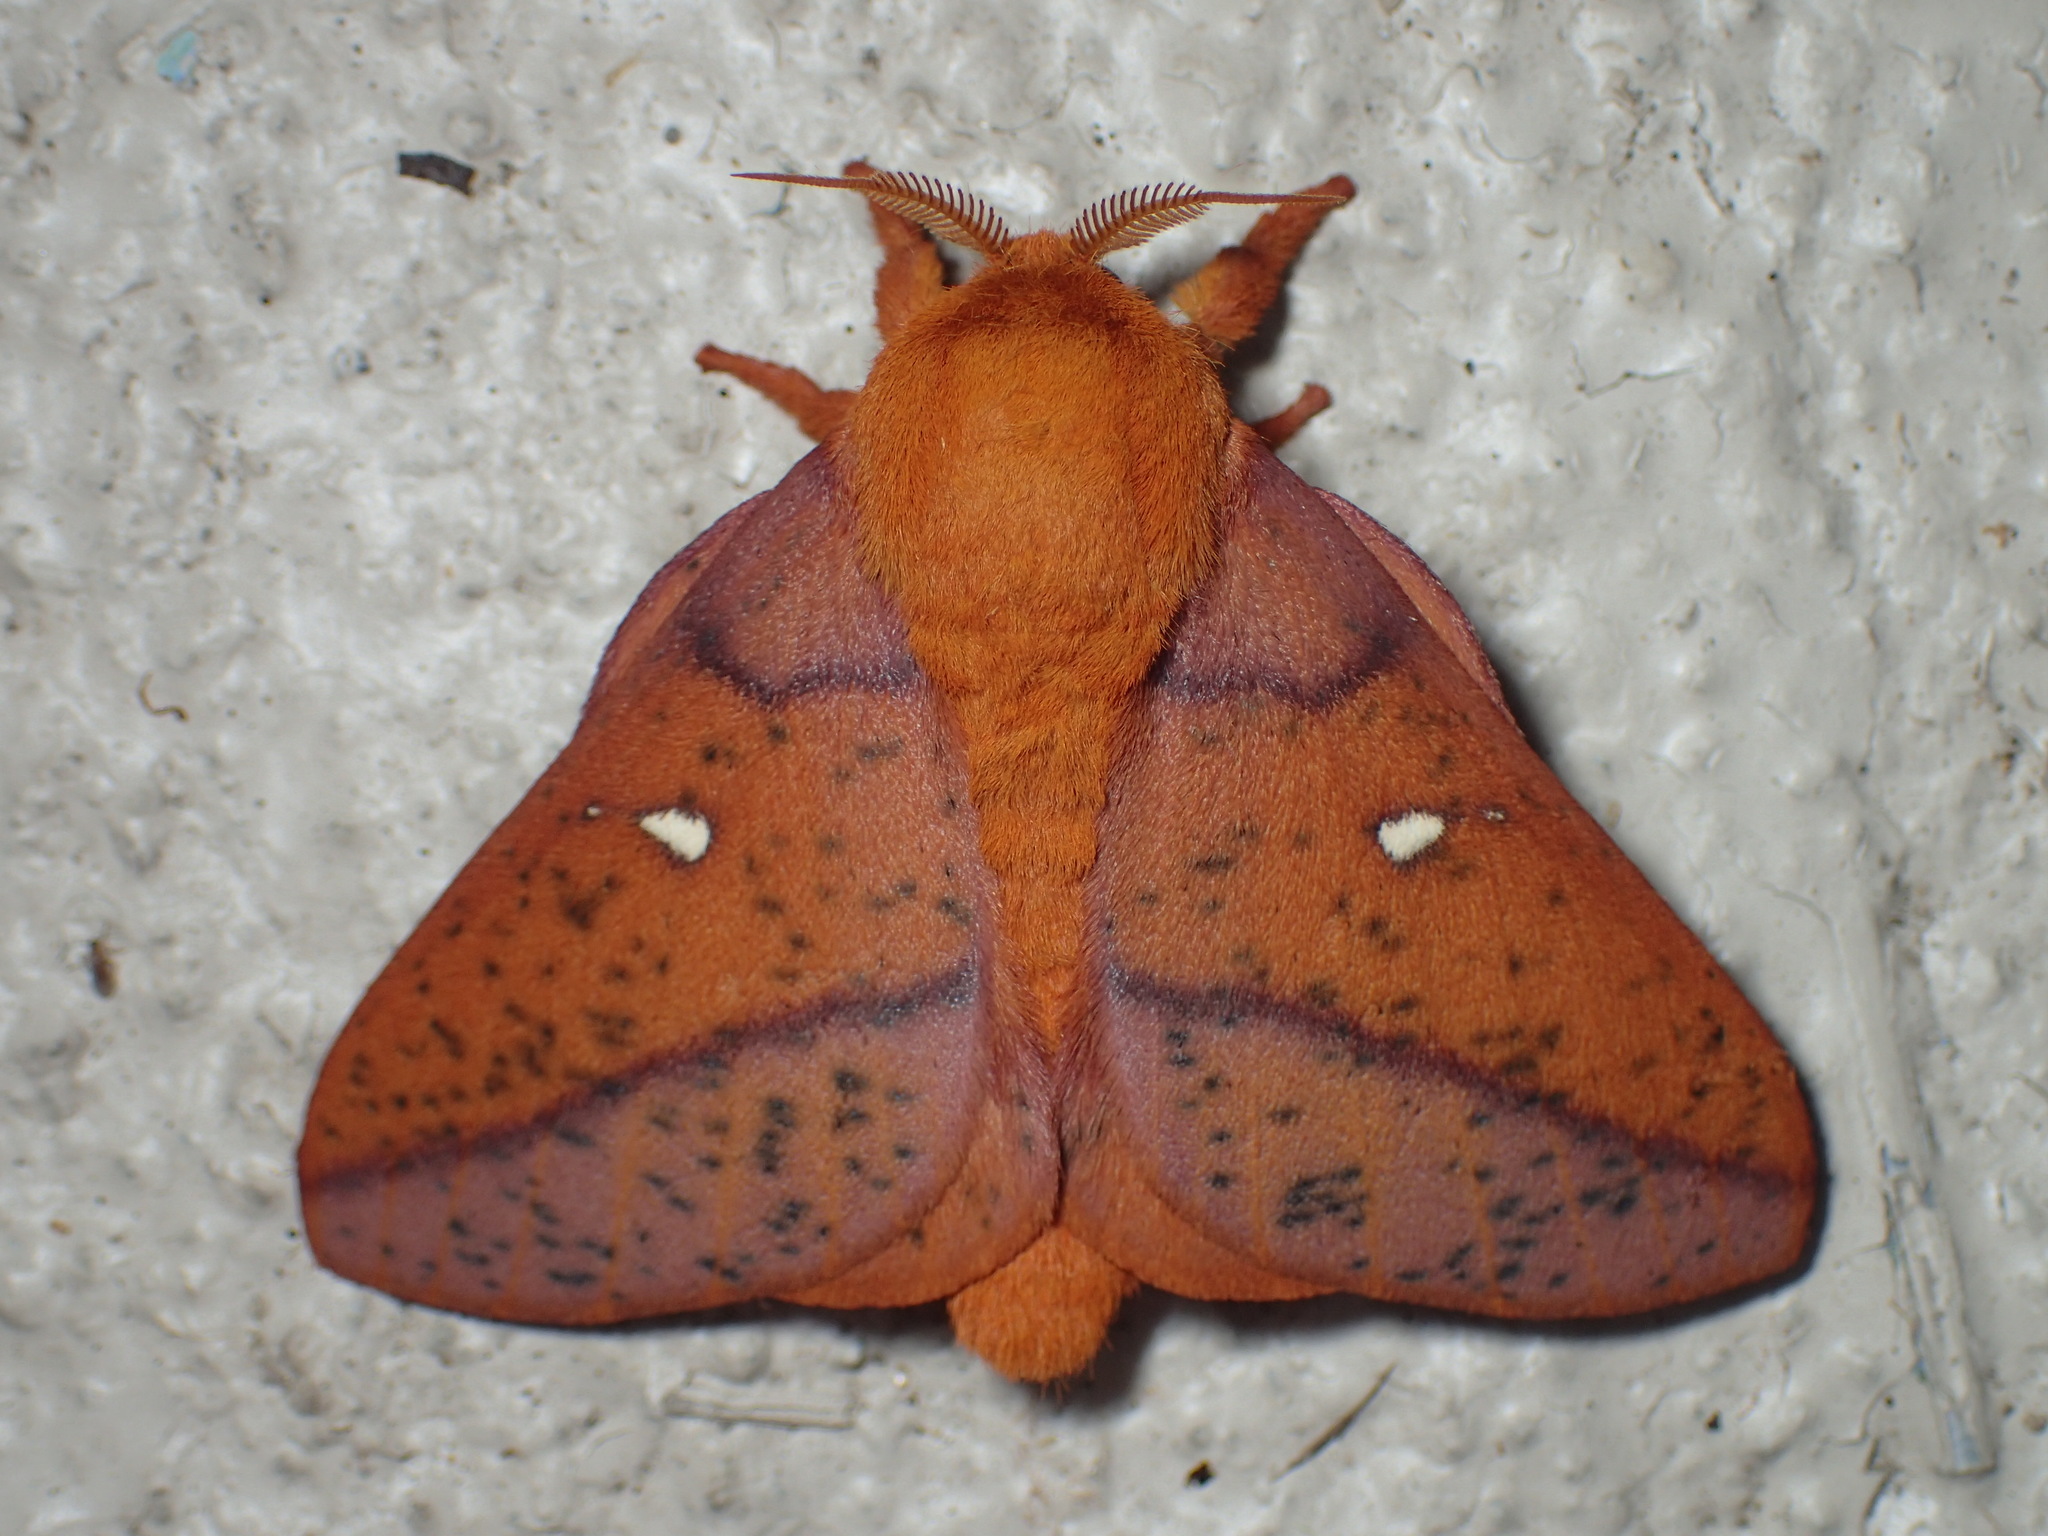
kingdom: Animalia
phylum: Arthropoda
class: Insecta
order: Lepidoptera
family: Saturniidae
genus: Anisota
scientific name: Anisota stigma
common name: Spiny oakworm moth
